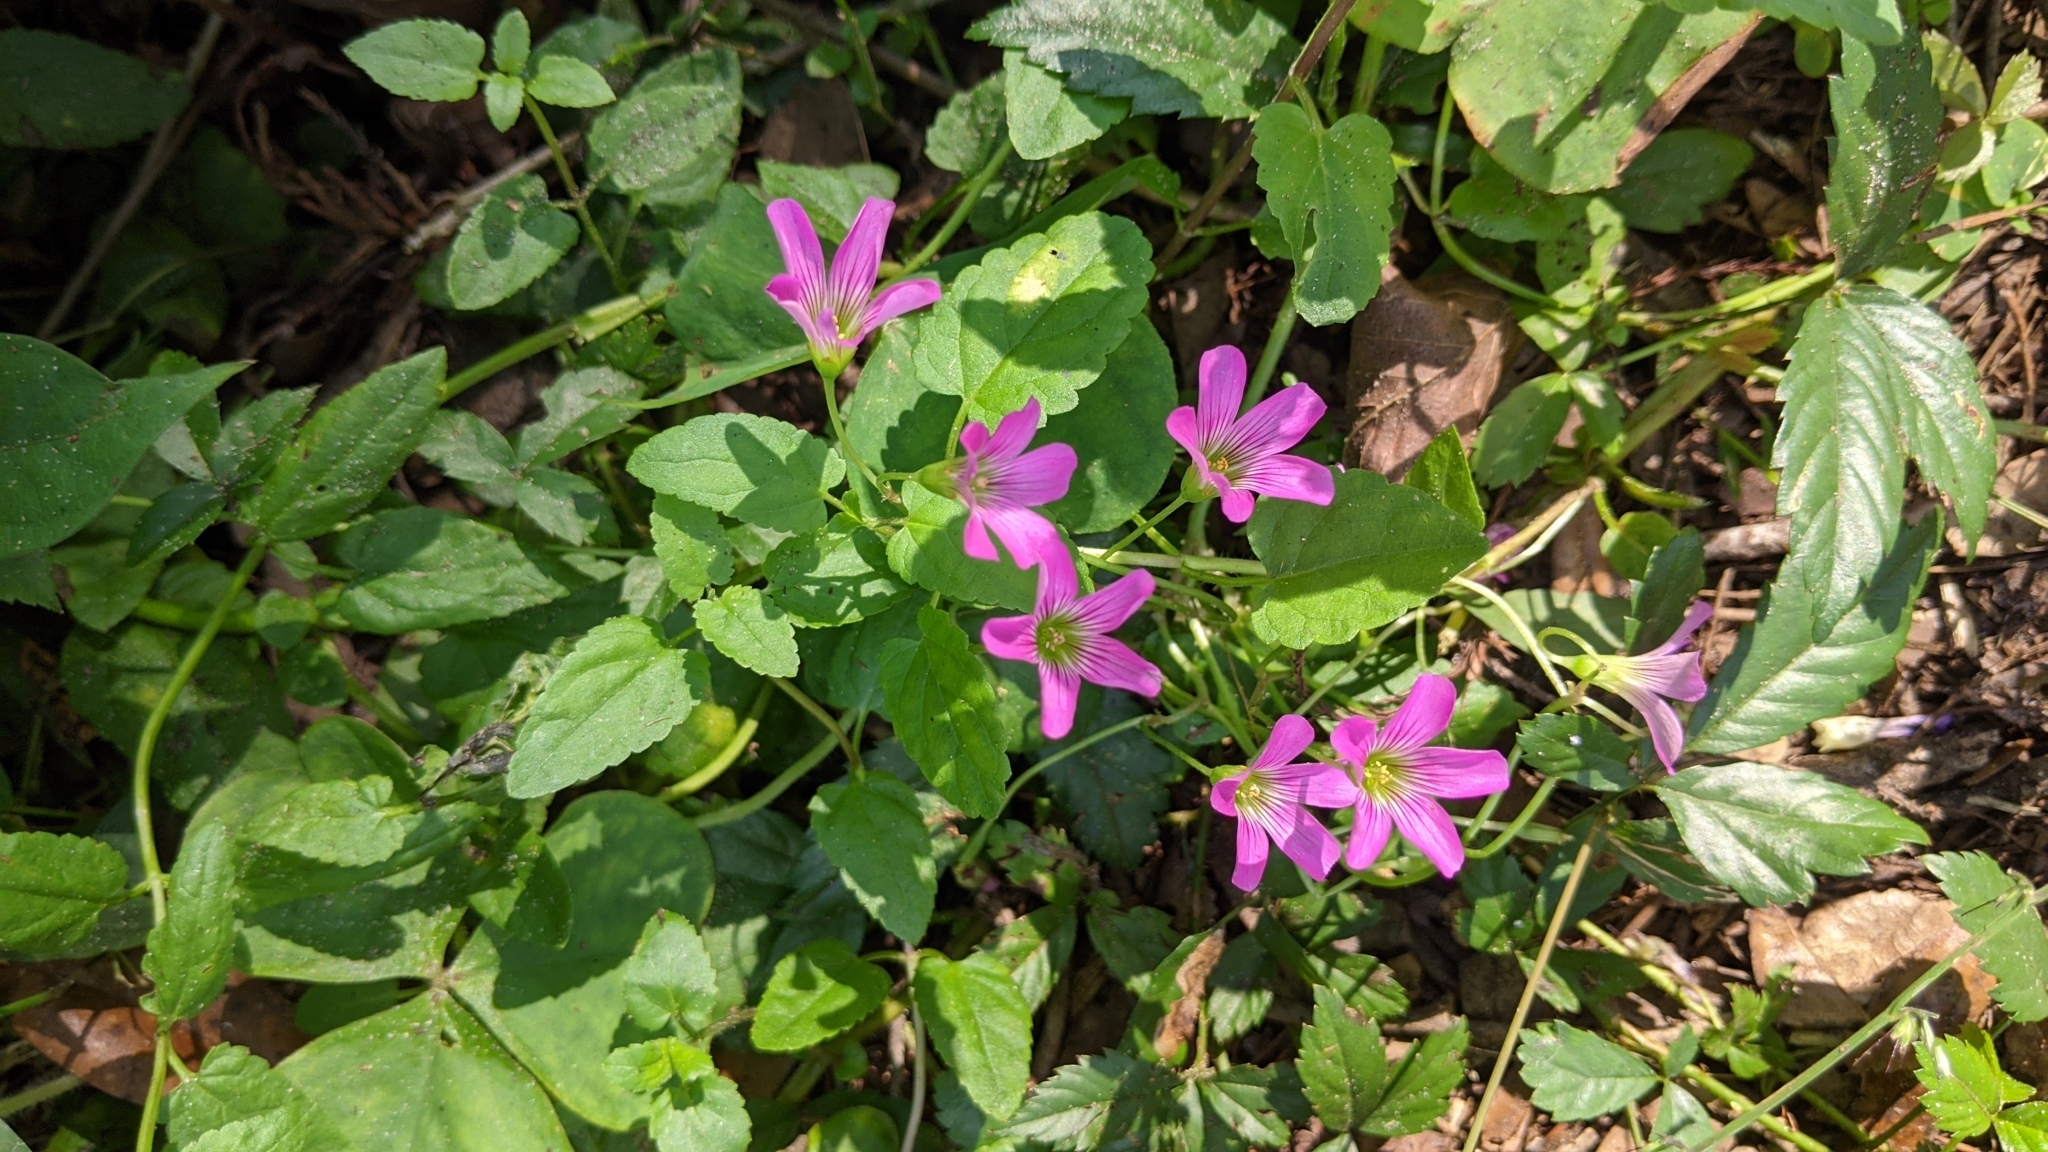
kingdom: Plantae
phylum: Tracheophyta
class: Magnoliopsida
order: Oxalidales
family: Oxalidaceae
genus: Oxalis
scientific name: Oxalis debilis
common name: Large-flowered pink-sorrel
